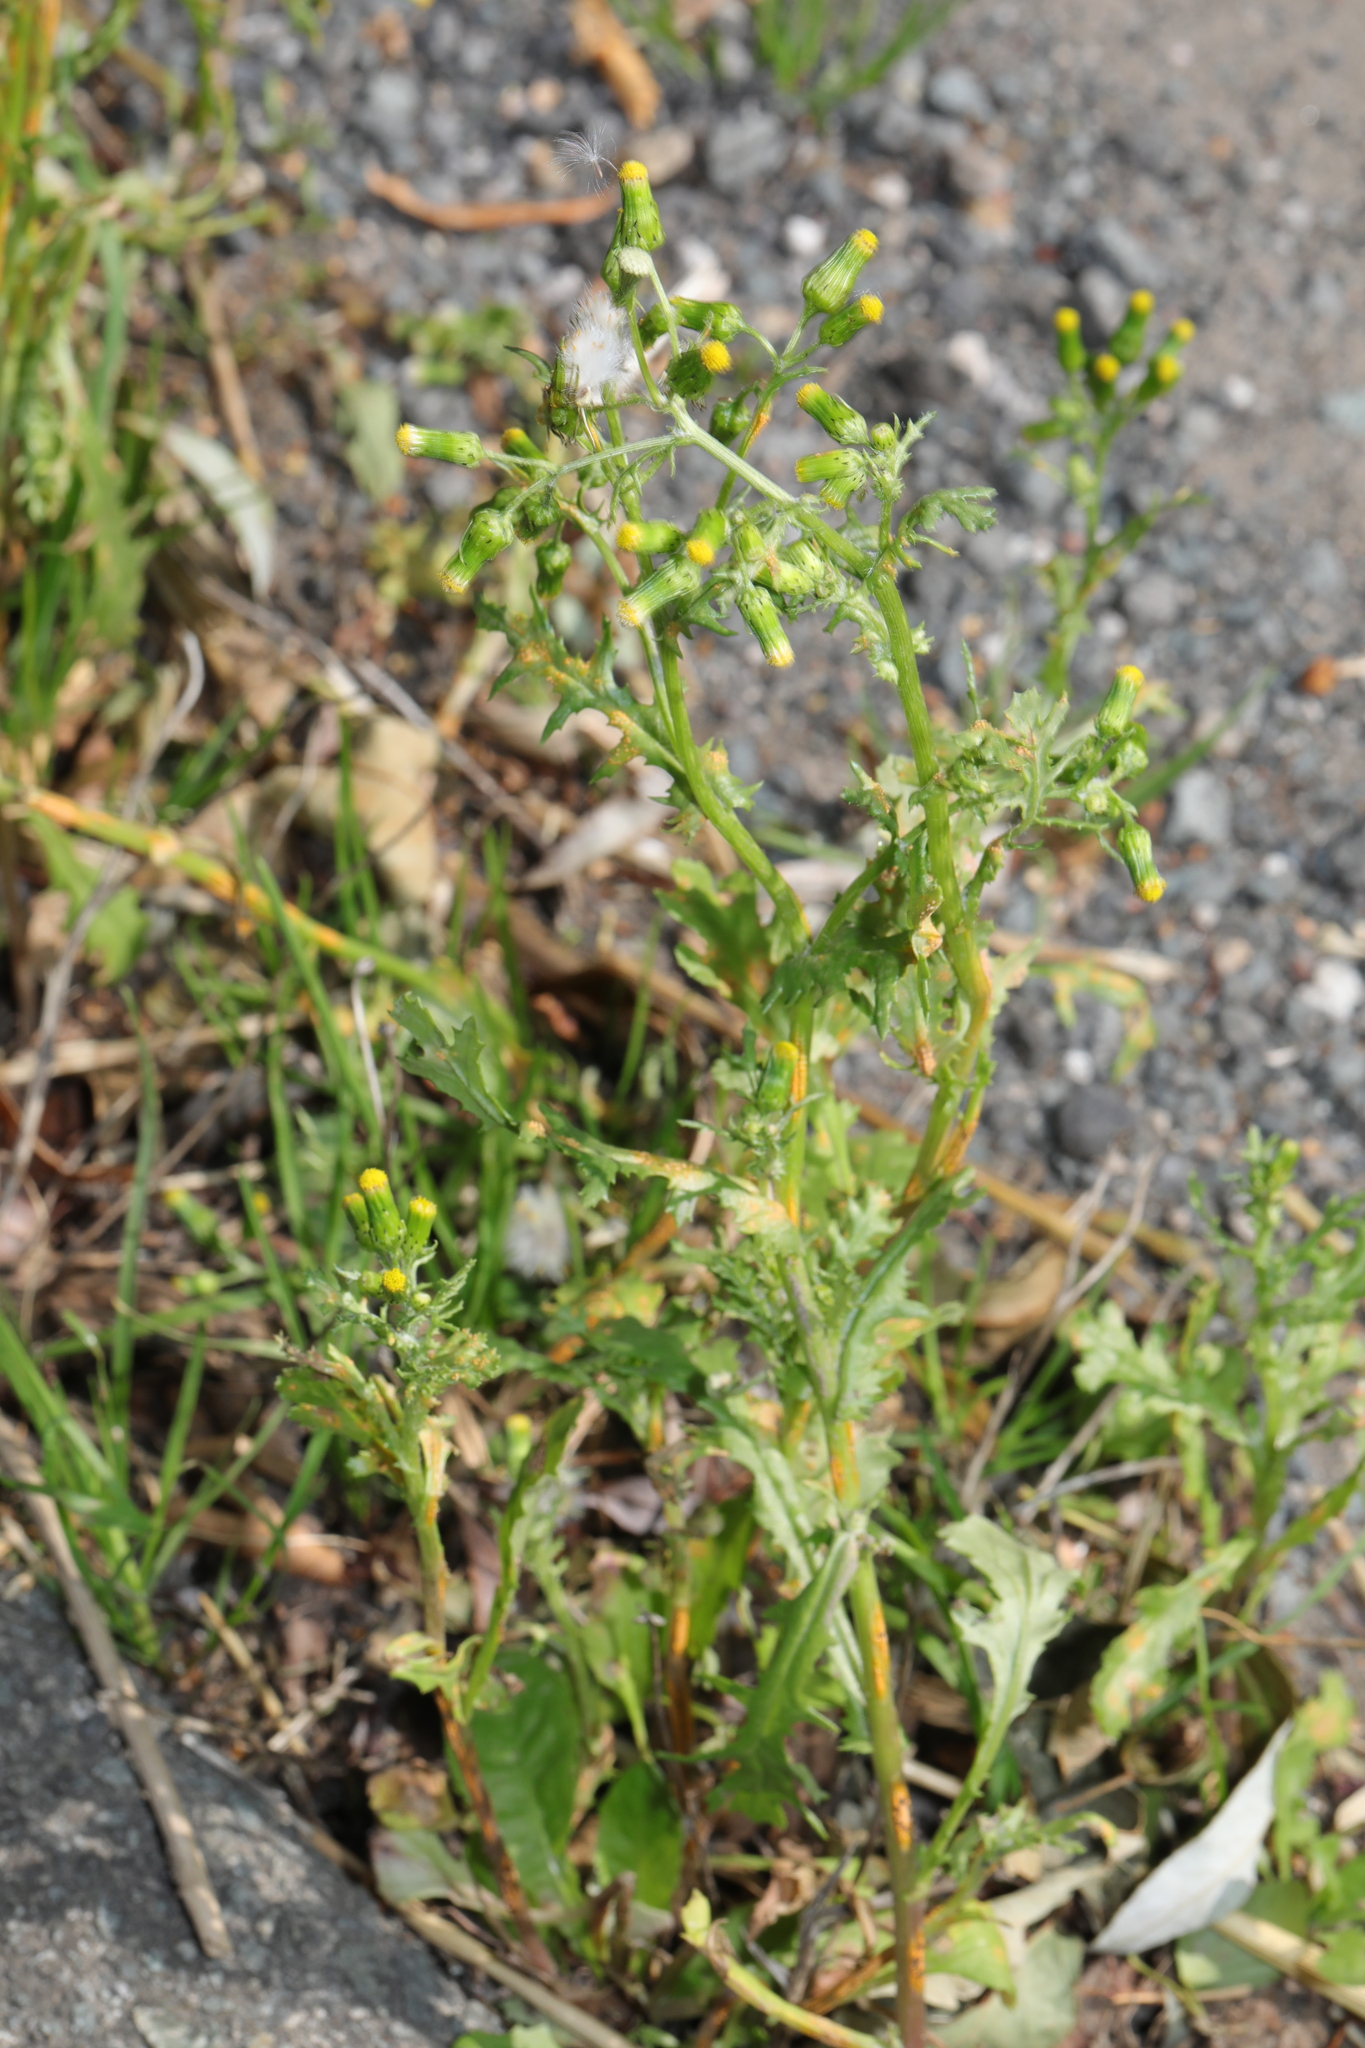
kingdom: Plantae
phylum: Tracheophyta
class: Magnoliopsida
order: Asterales
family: Asteraceae
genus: Senecio
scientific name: Senecio vulgaris
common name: Old-man-in-the-spring
